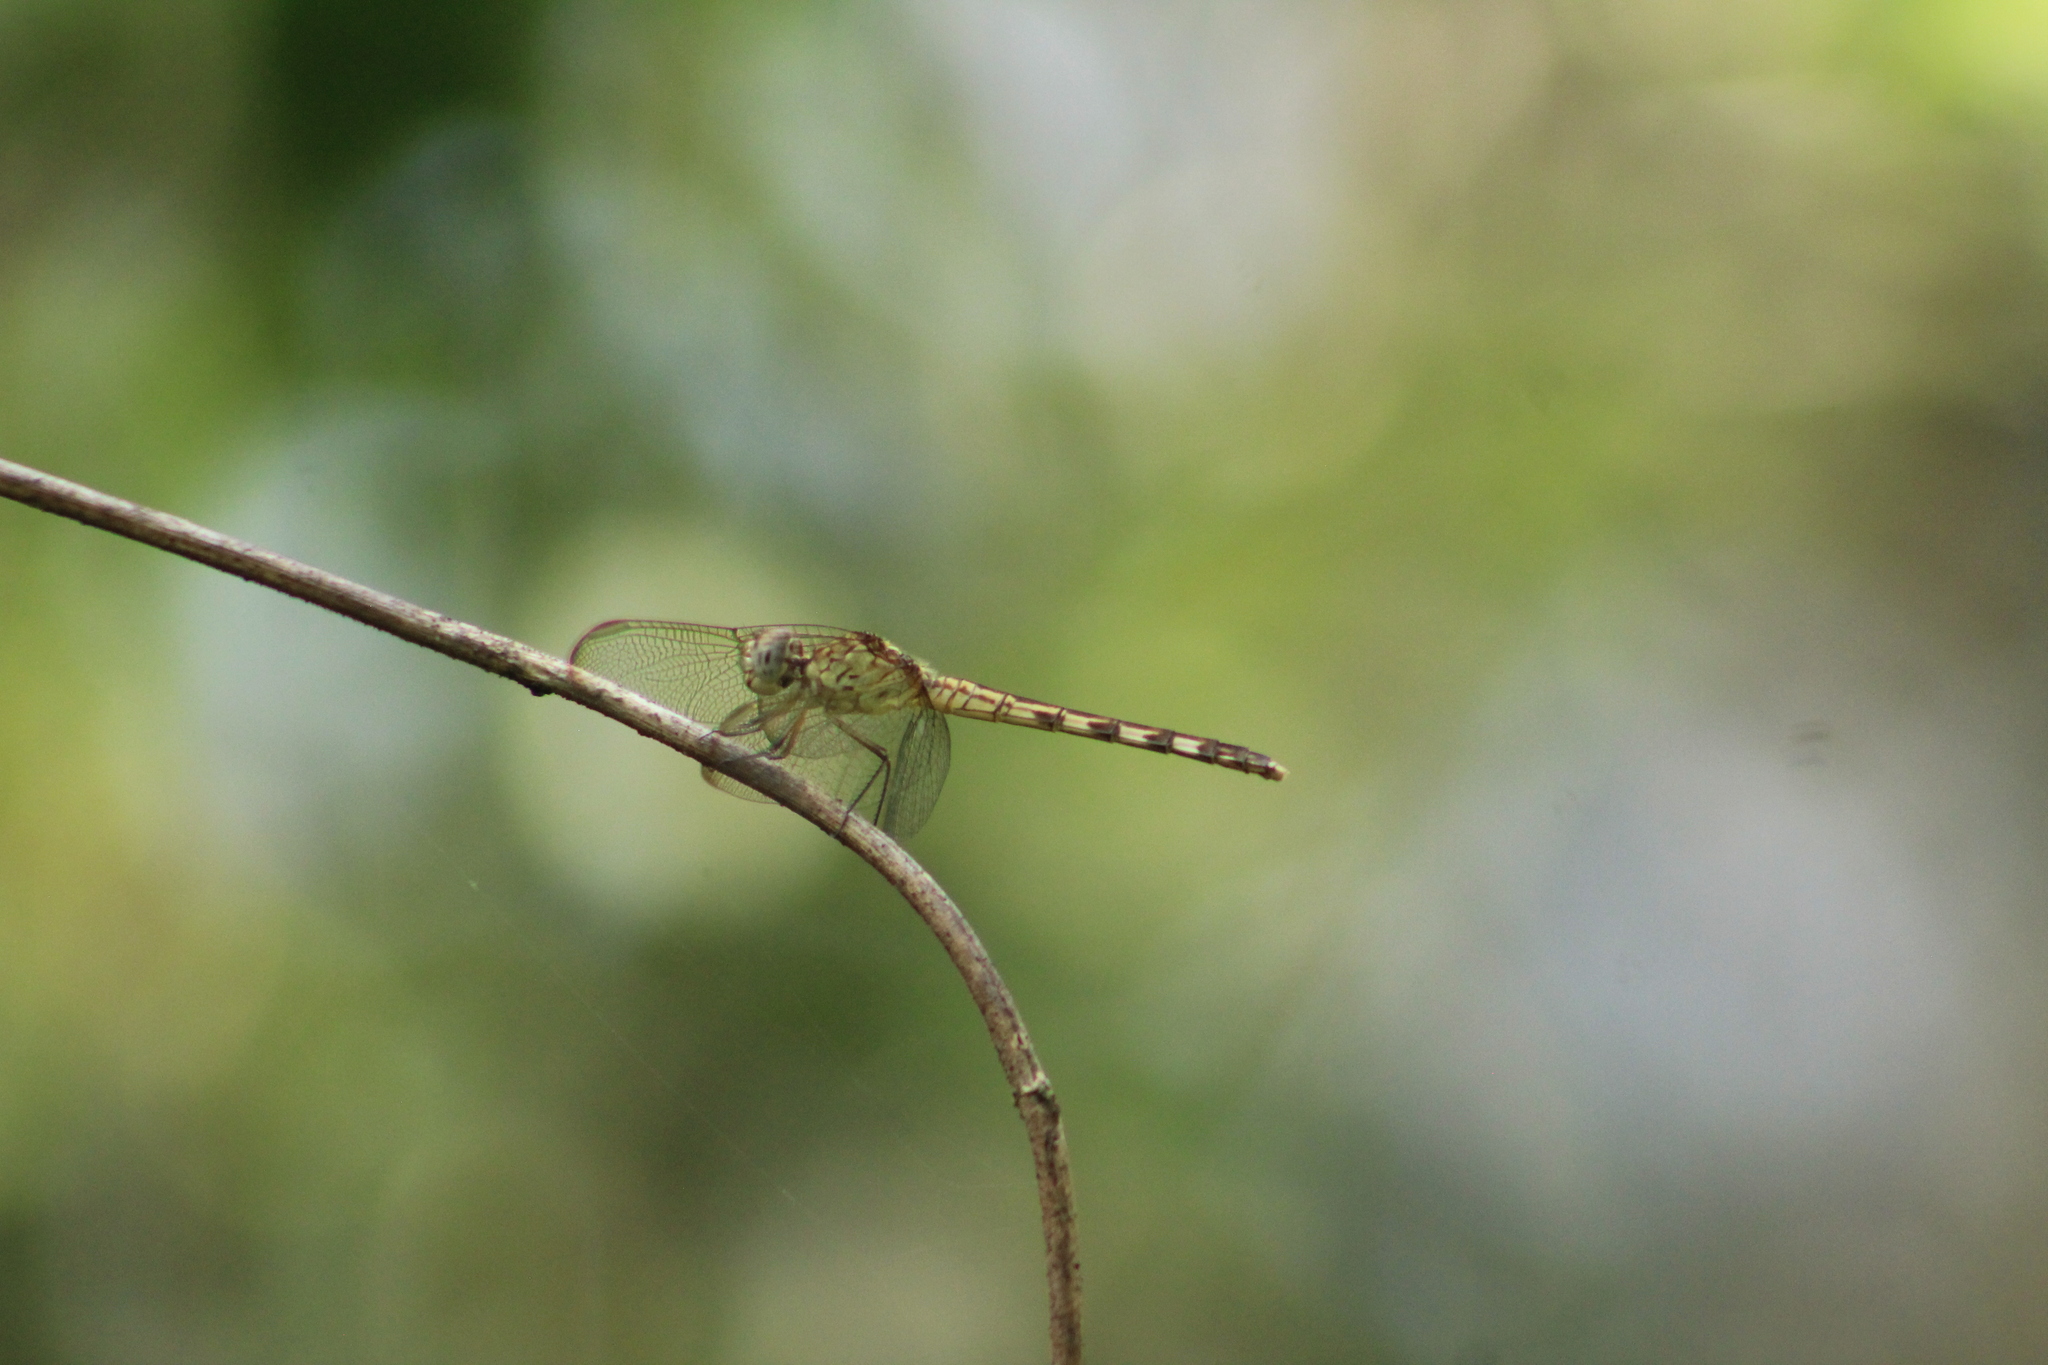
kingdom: Animalia
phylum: Arthropoda
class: Insecta
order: Odonata
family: Libellulidae
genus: Erythrodiplax
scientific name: Erythrodiplax umbrata
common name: Band-winged dragonlet
